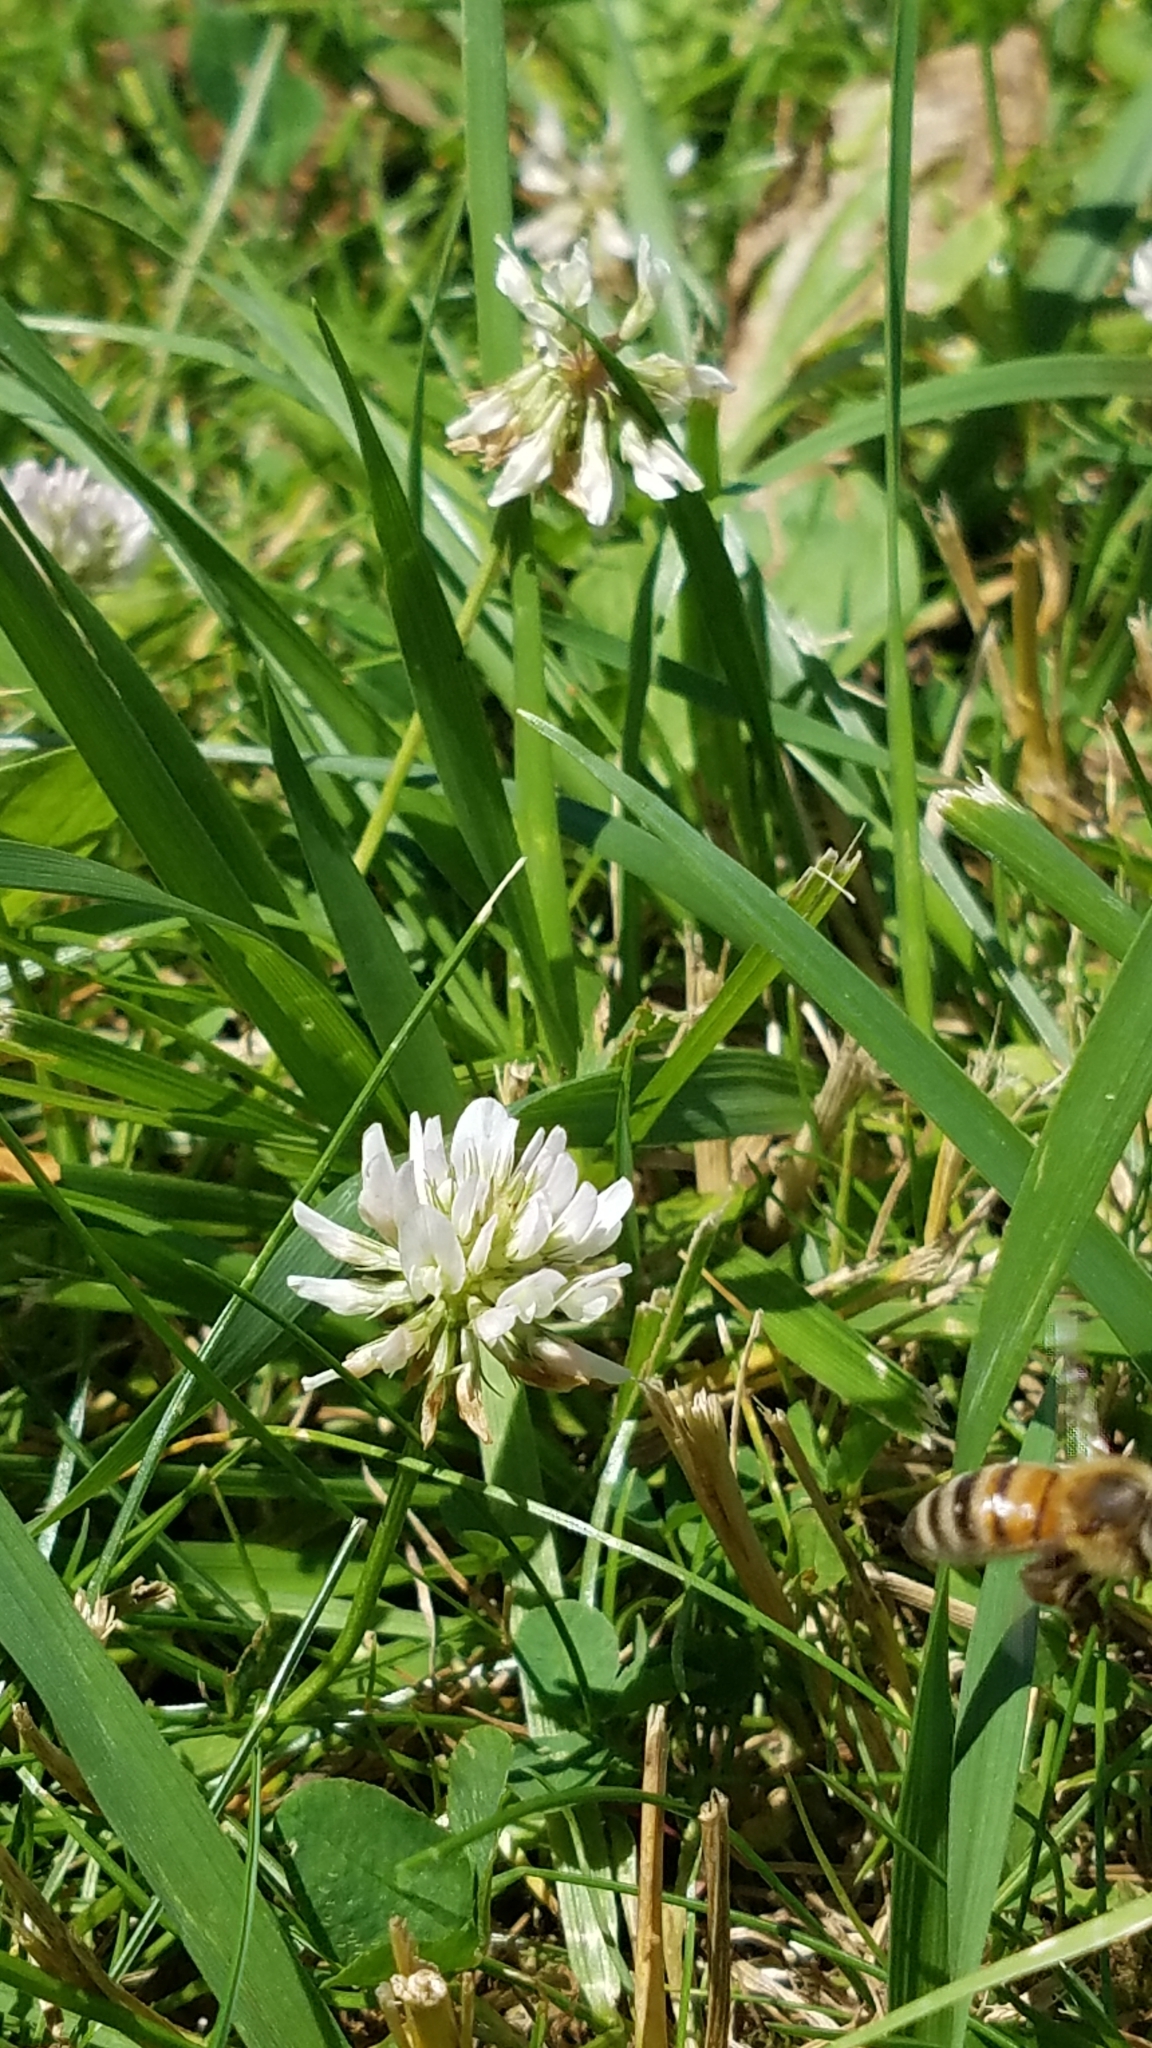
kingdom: Animalia
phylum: Arthropoda
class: Insecta
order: Hymenoptera
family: Apidae
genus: Apis
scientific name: Apis mellifera
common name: Honey bee
